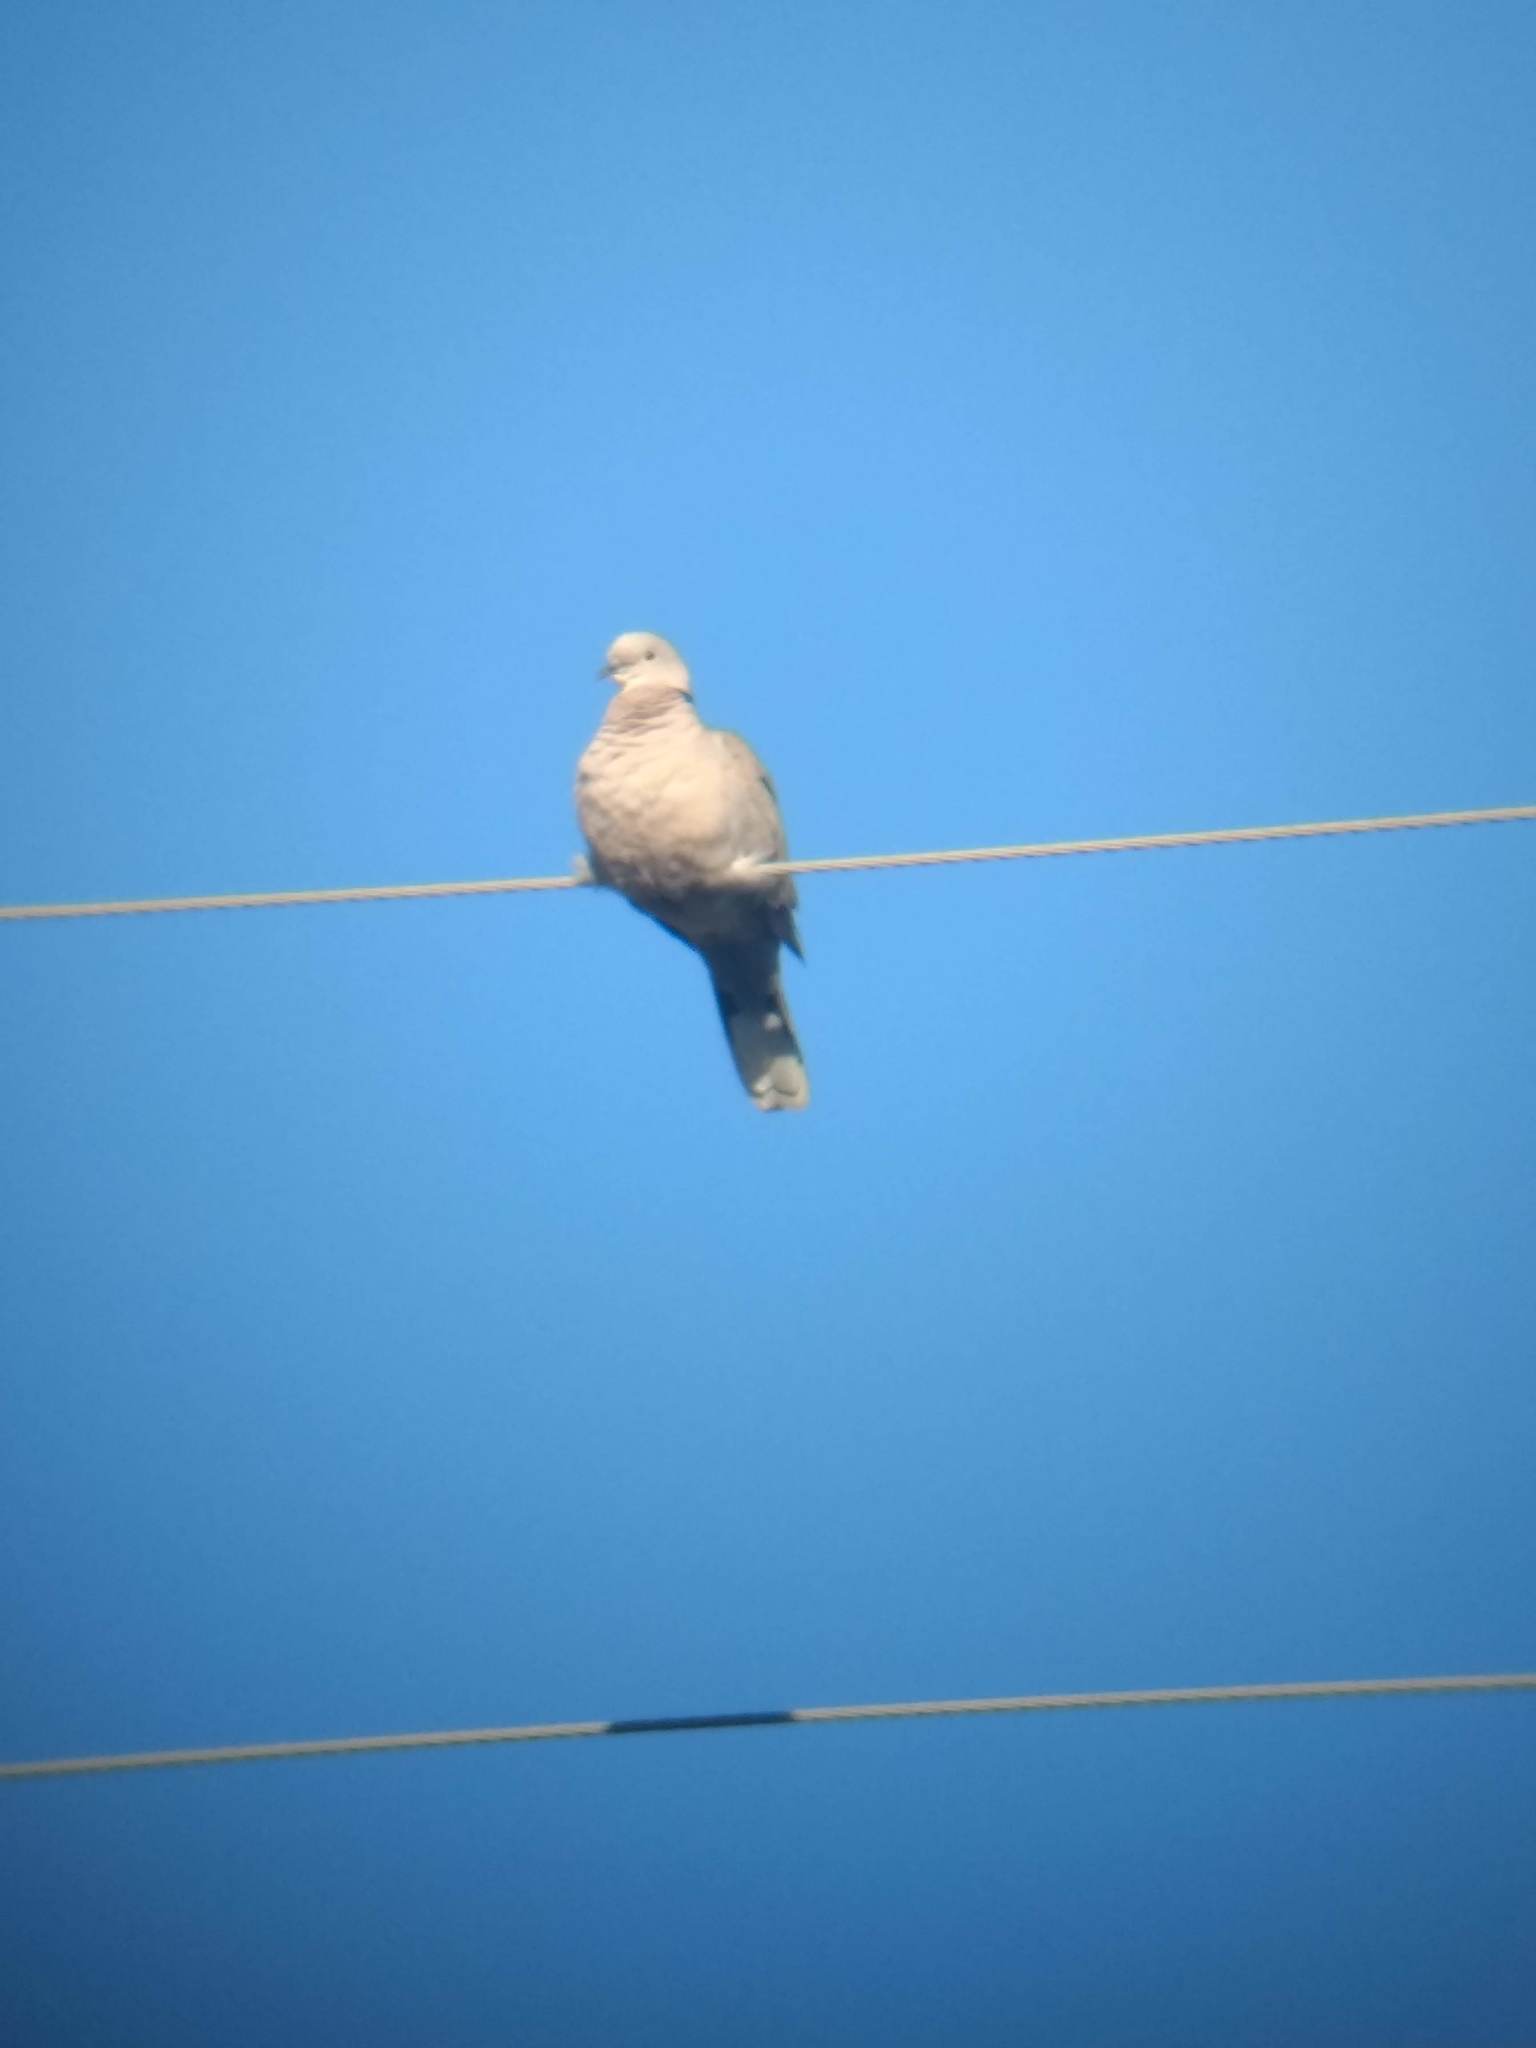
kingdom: Animalia
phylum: Chordata
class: Aves
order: Columbiformes
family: Columbidae
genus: Streptopelia
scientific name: Streptopelia decaocto
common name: Eurasian collared dove
